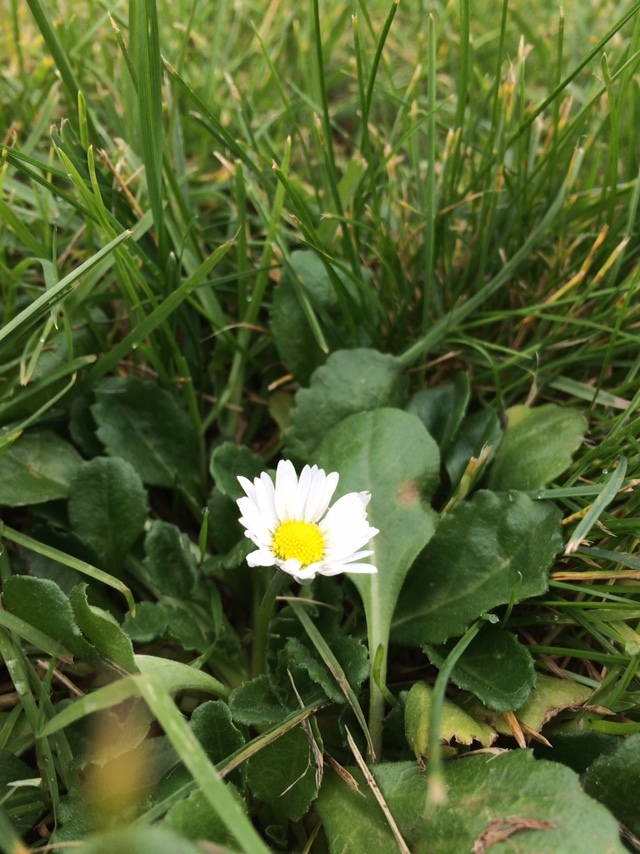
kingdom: Plantae
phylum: Tracheophyta
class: Magnoliopsida
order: Asterales
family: Asteraceae
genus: Bellis
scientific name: Bellis perennis
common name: Lawndaisy
